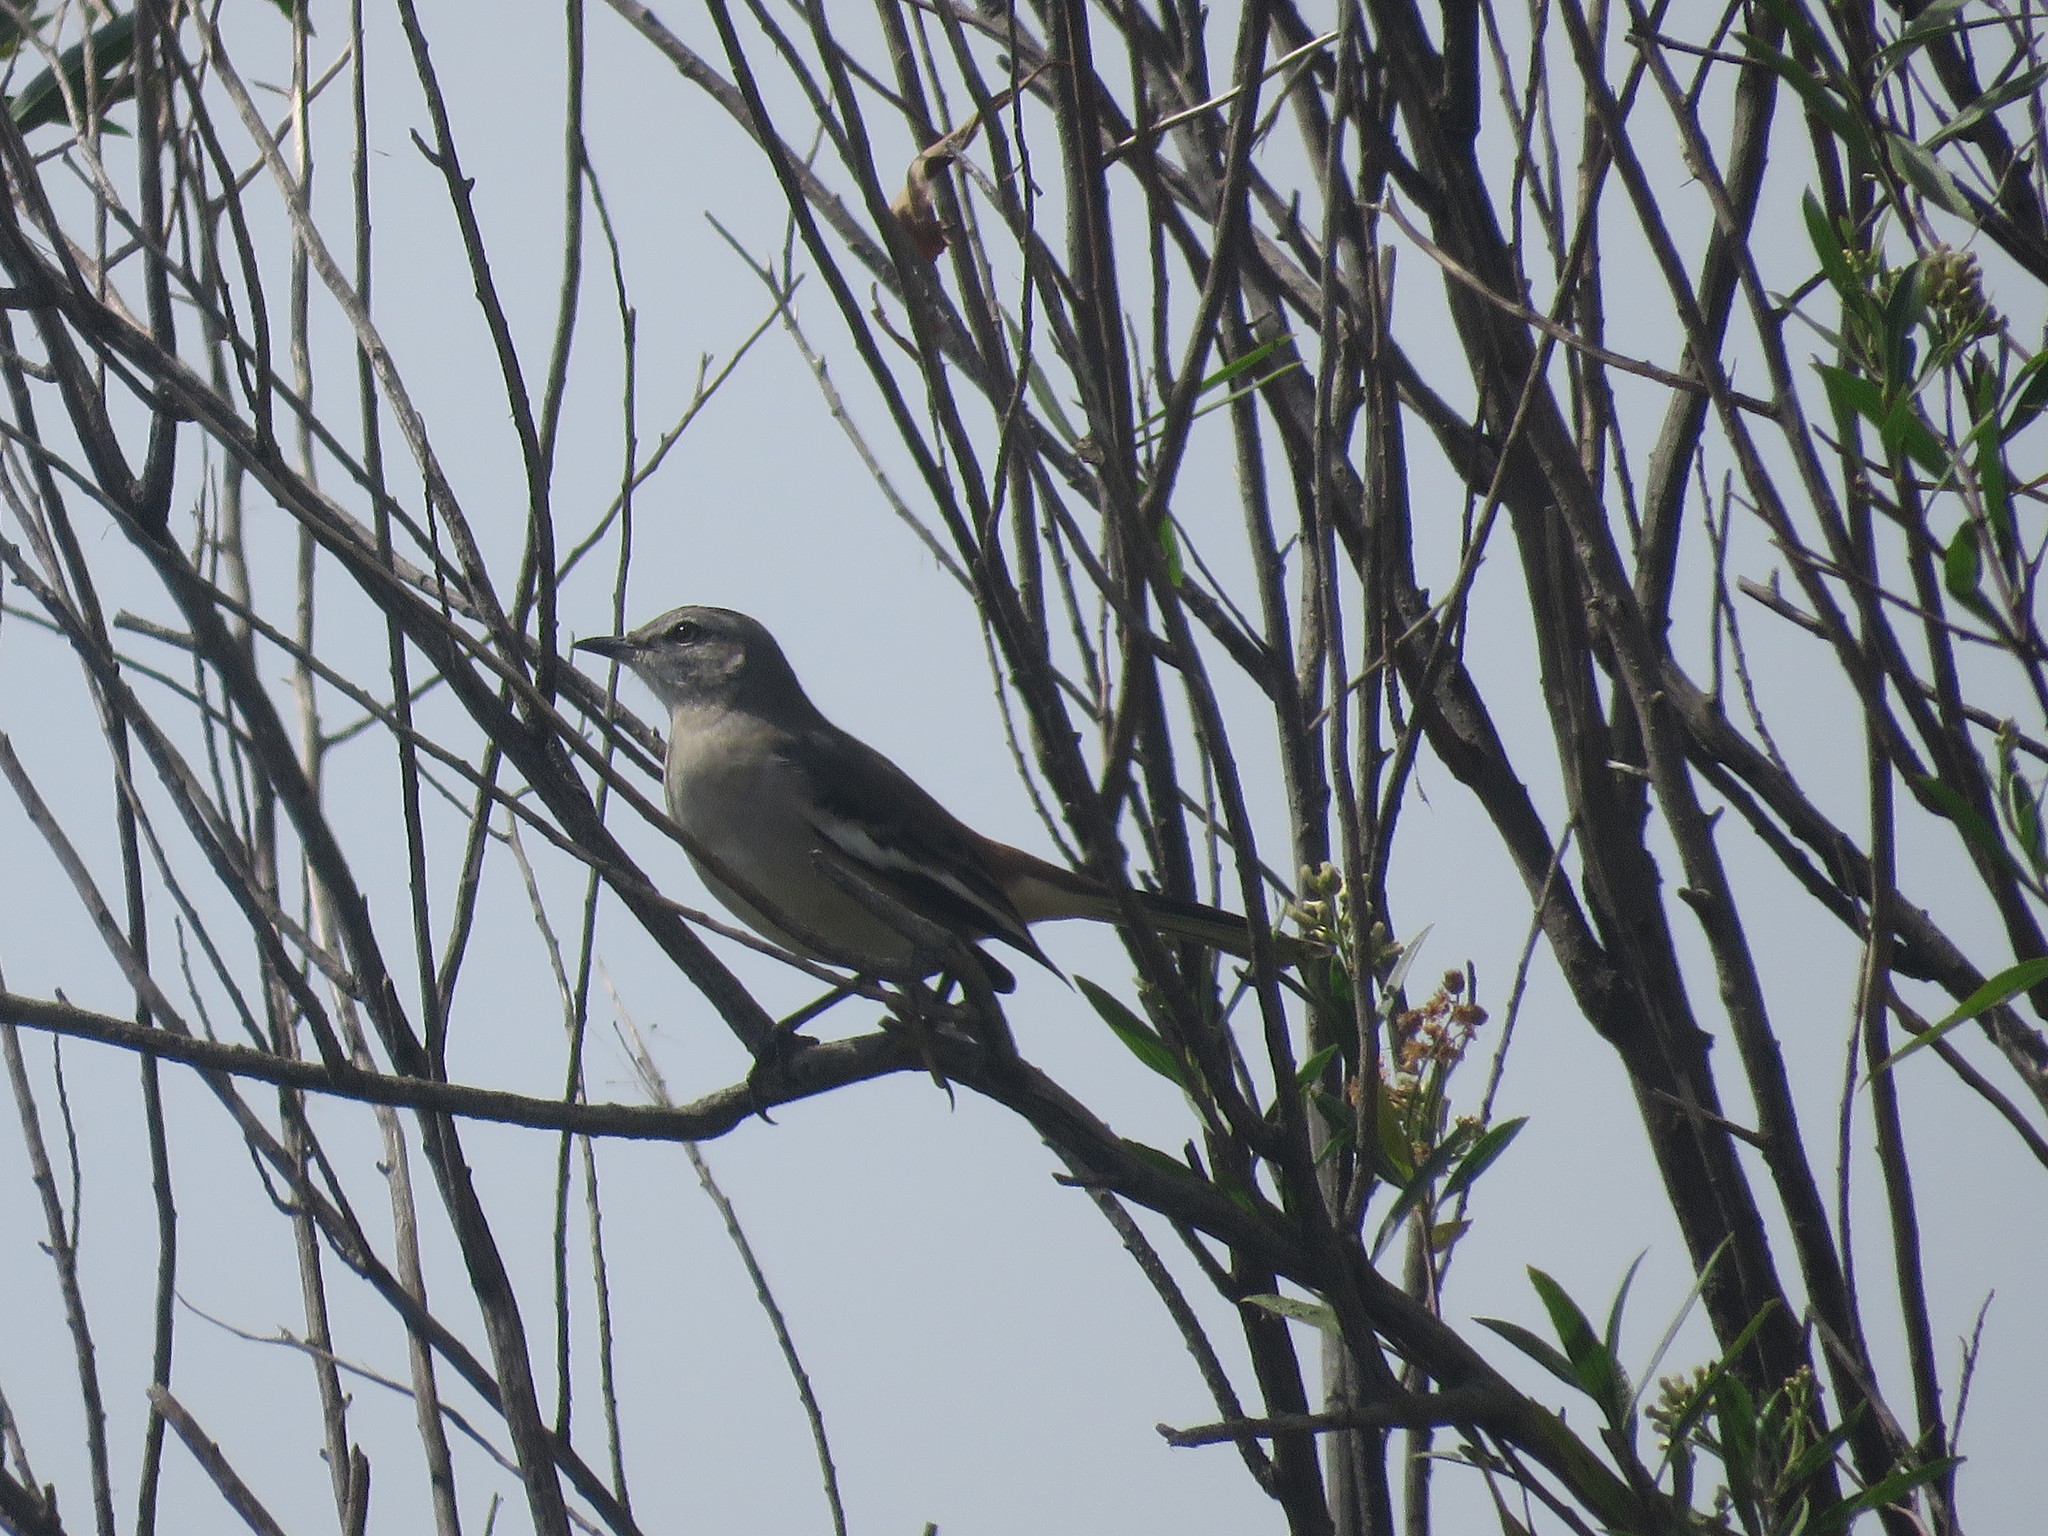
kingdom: Animalia
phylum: Chordata
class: Aves
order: Passeriformes
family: Mimidae
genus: Mimus
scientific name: Mimus triurus
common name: White-banded mockingbird
